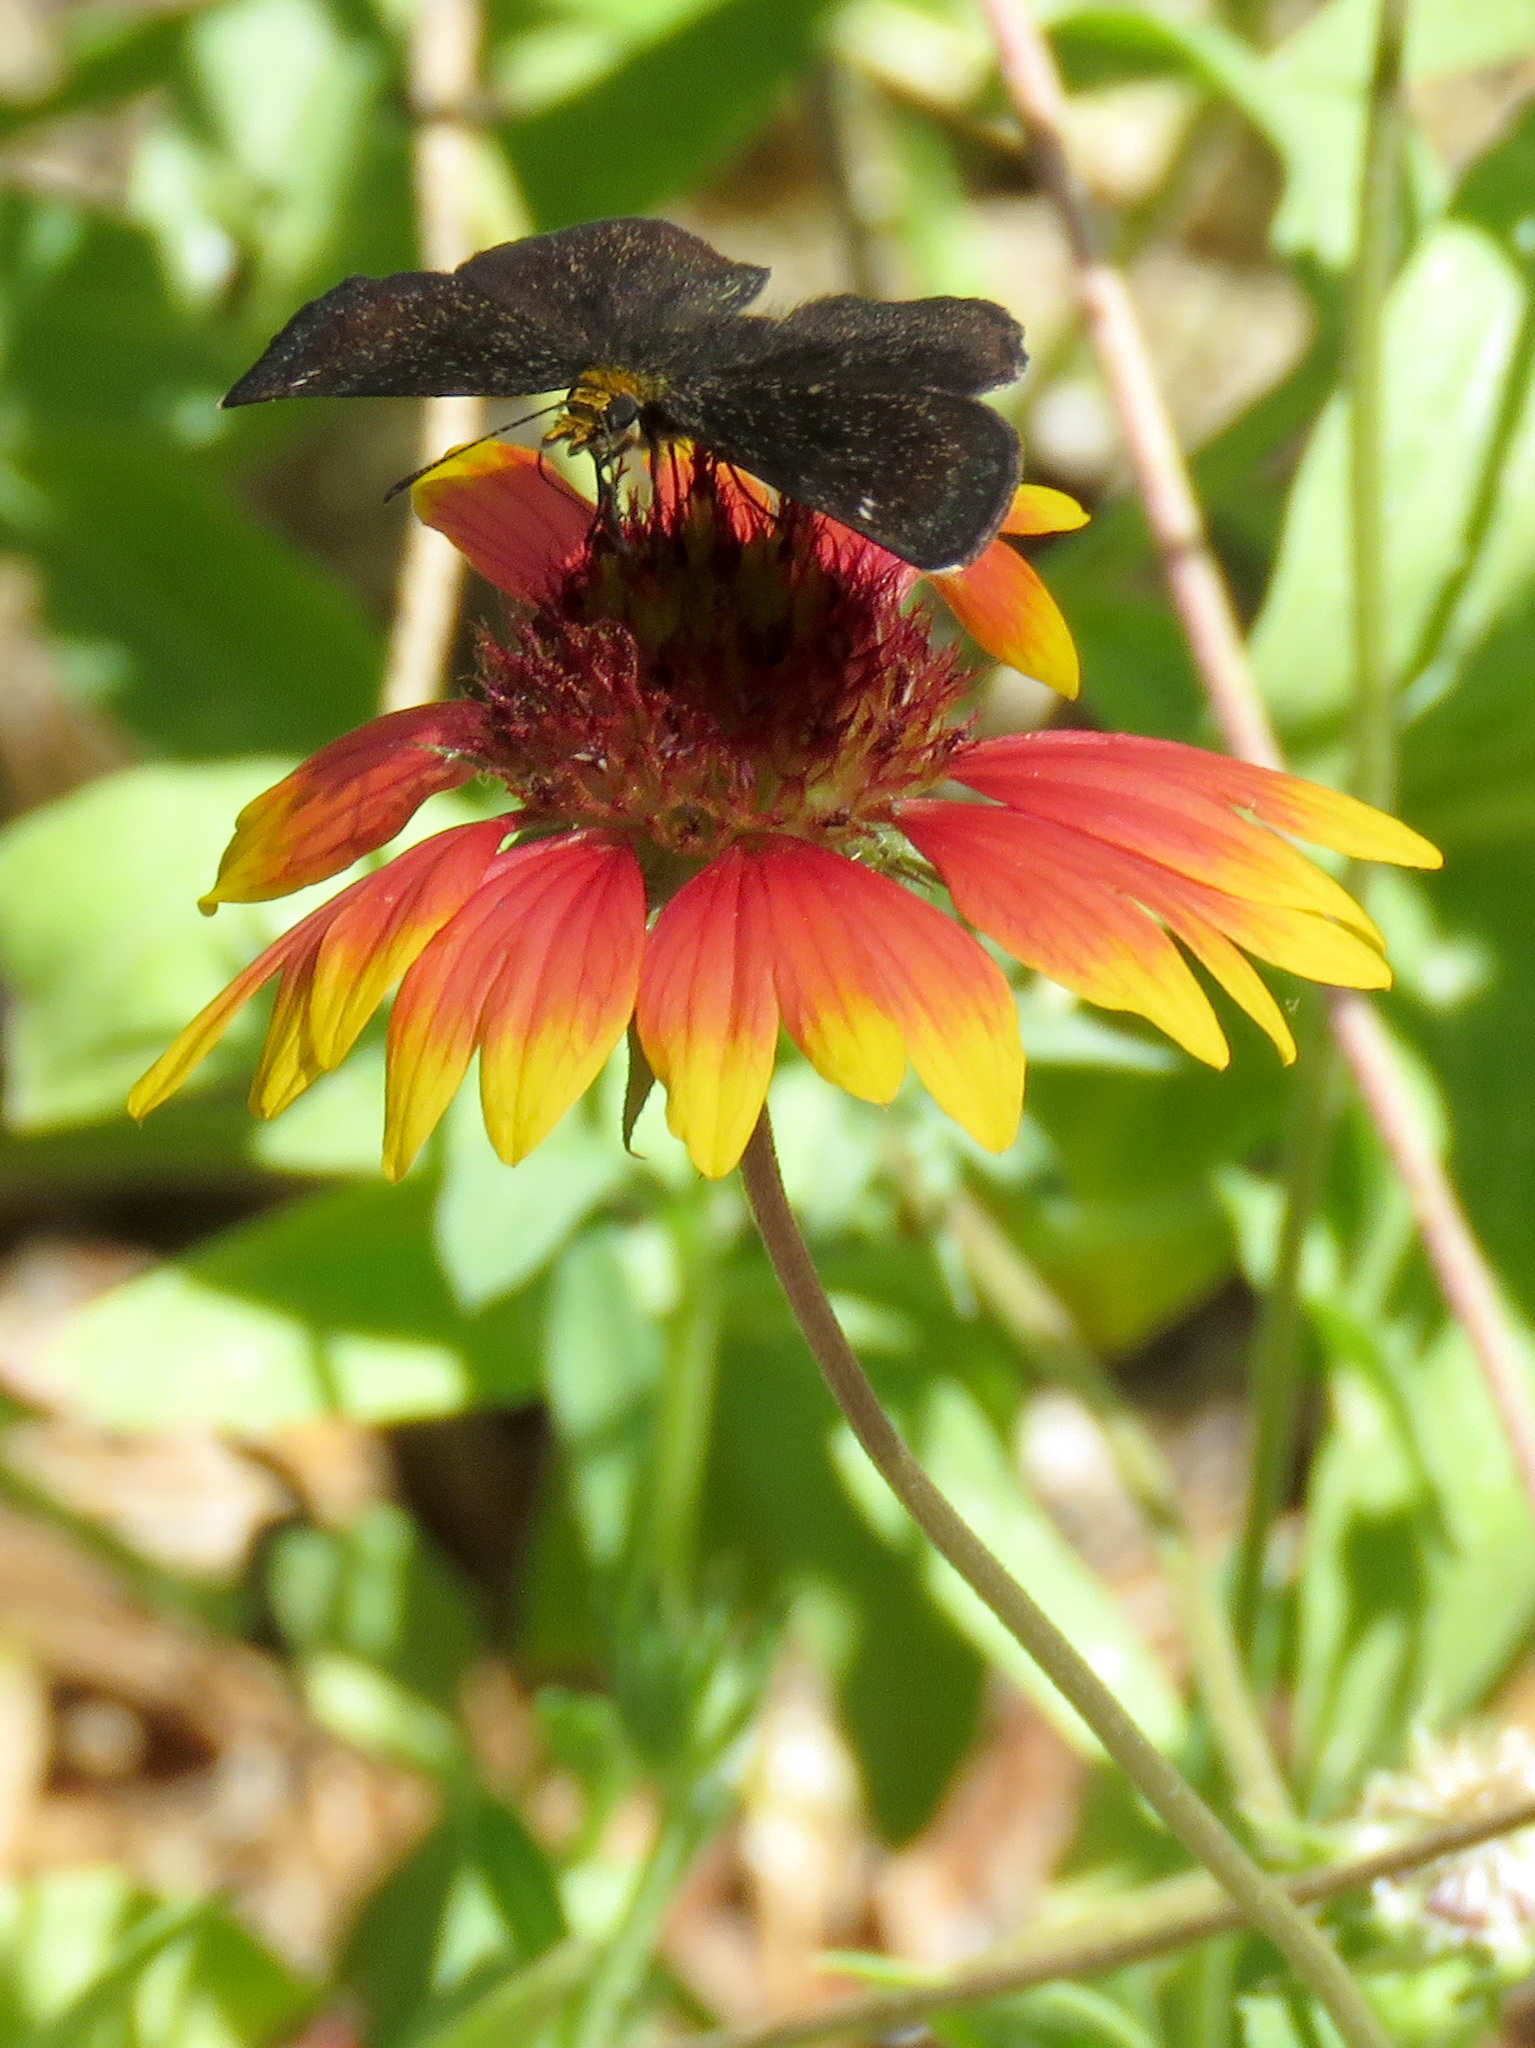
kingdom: Animalia
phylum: Arthropoda
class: Insecta
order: Lepidoptera
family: Hesperiidae
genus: Staphylus
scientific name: Staphylus ceos
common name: Golden-headed scallopwing
